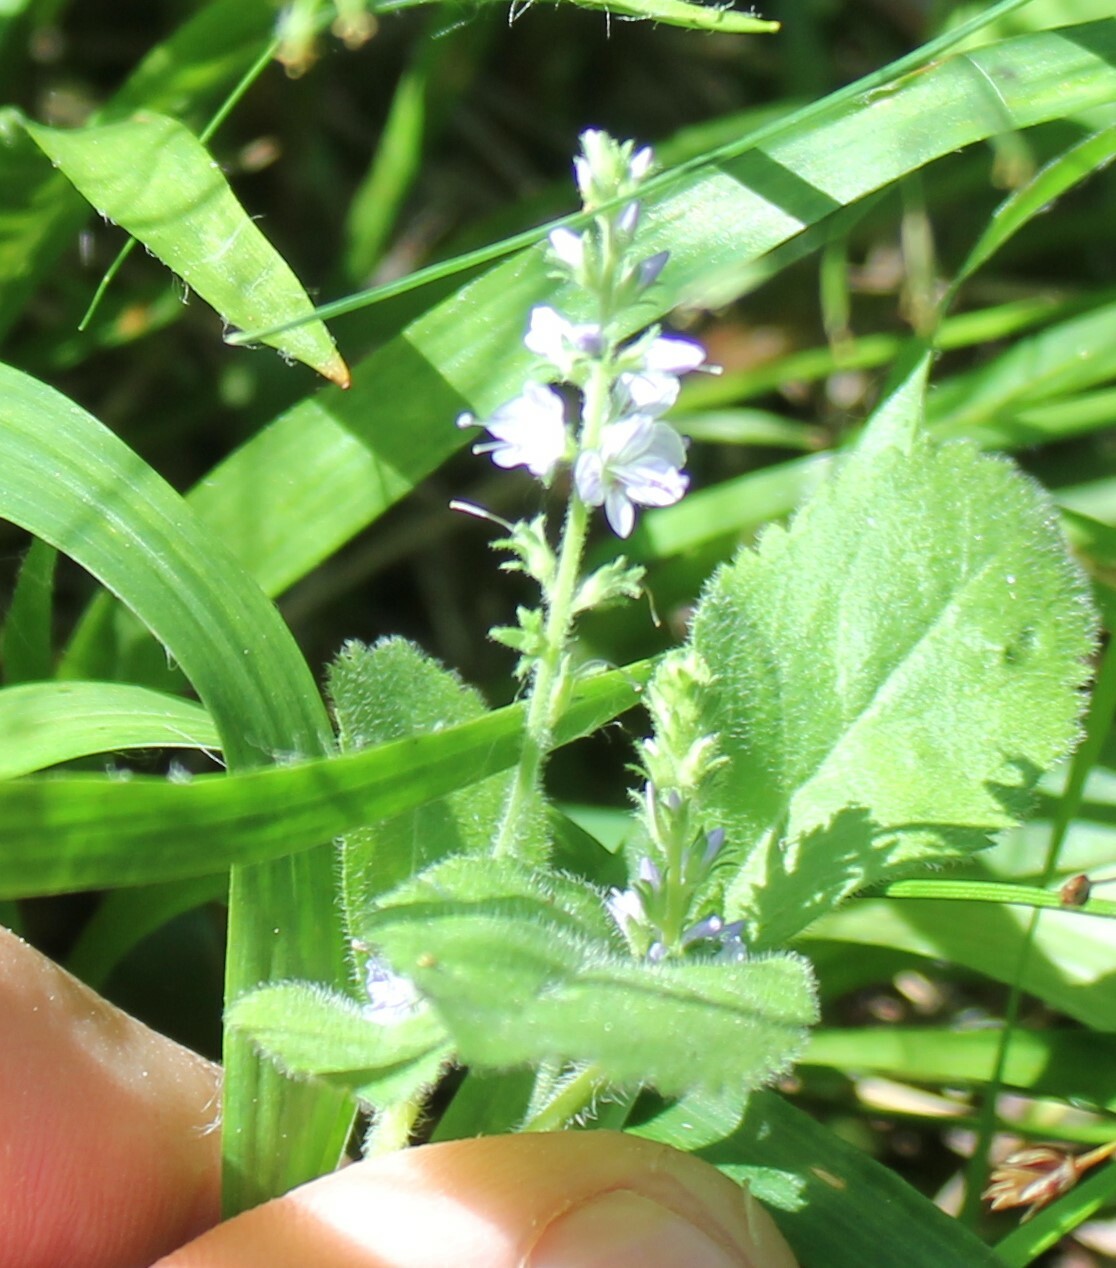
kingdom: Plantae
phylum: Tracheophyta
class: Magnoliopsida
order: Lamiales
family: Plantaginaceae
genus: Veronica
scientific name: Veronica officinalis
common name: Common speedwell
